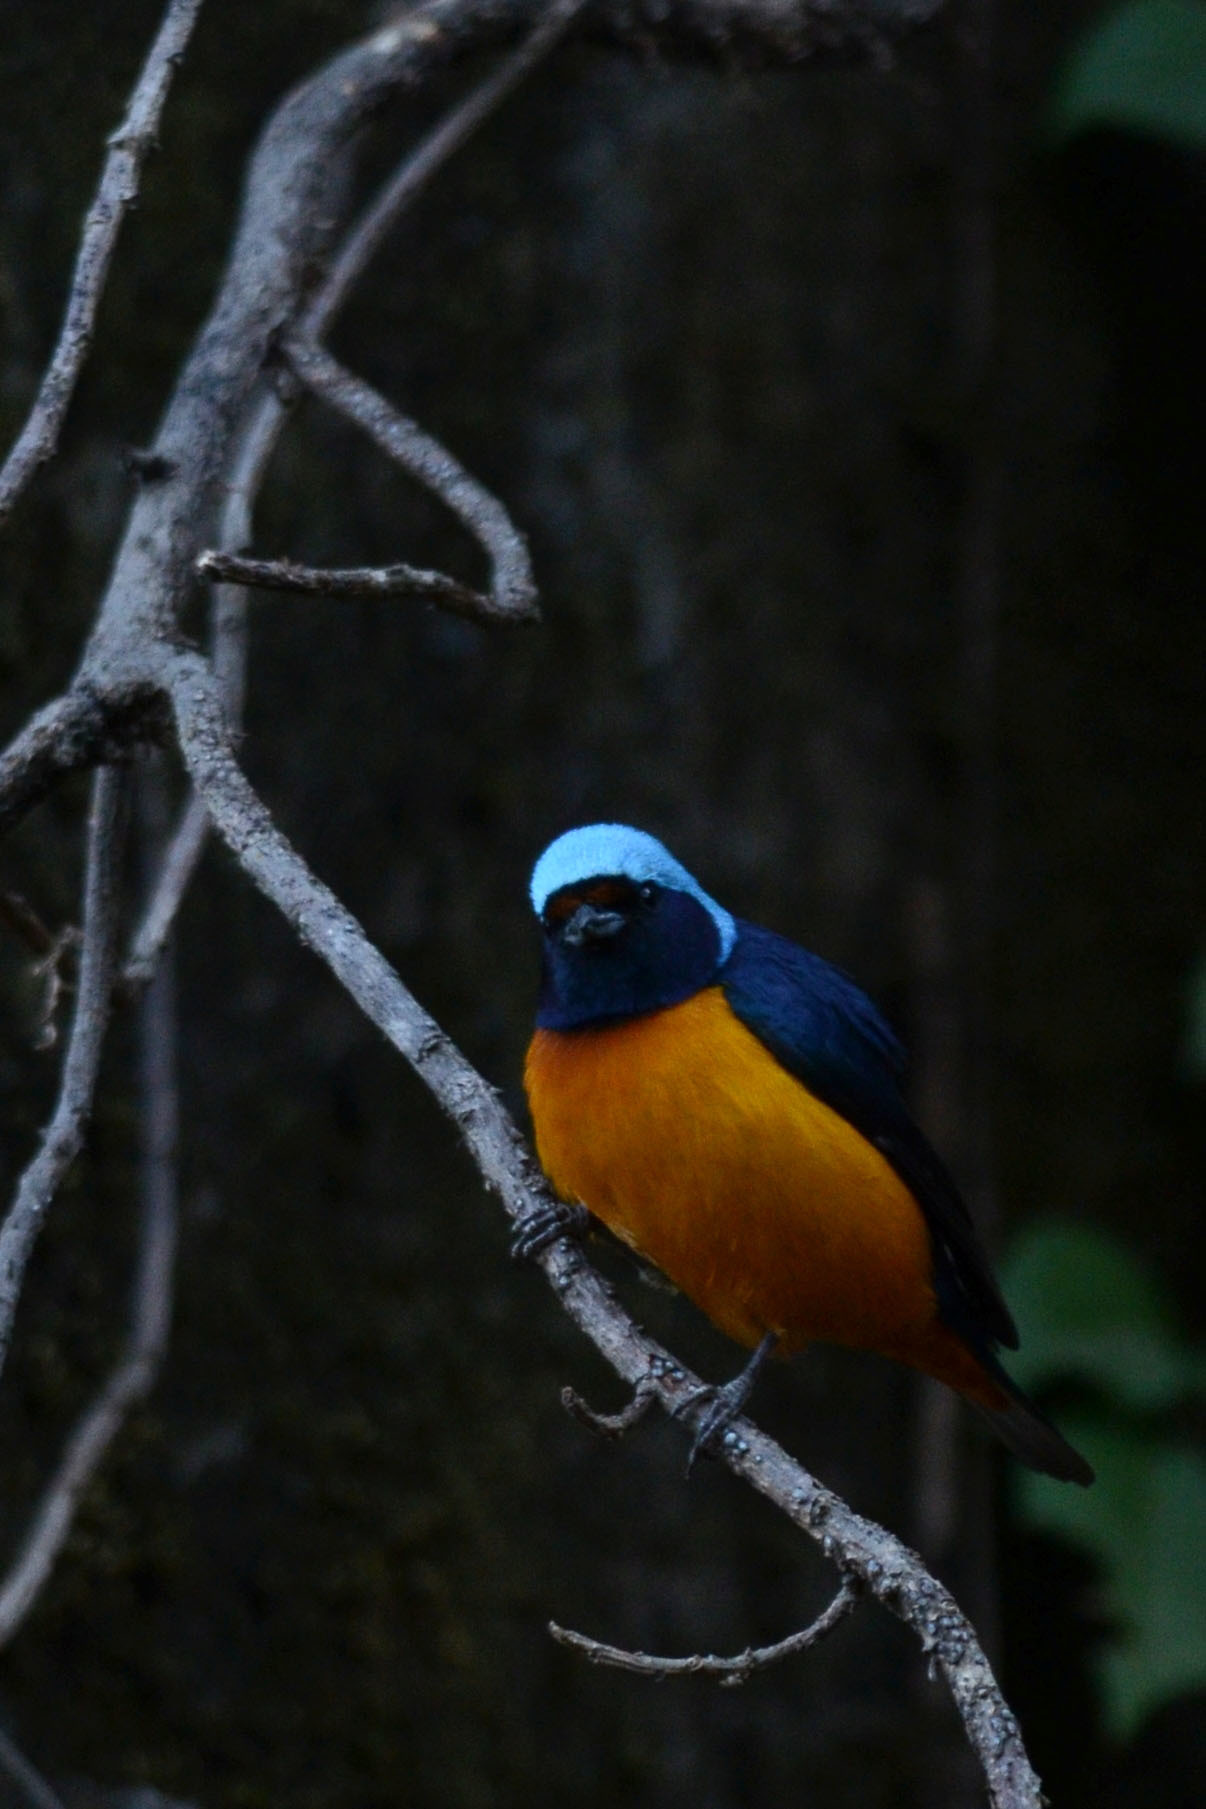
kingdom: Animalia
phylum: Chordata
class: Aves
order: Passeriformes
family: Fringillidae
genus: Euphonia
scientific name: Euphonia elegantissima
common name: Elegant euphonia
